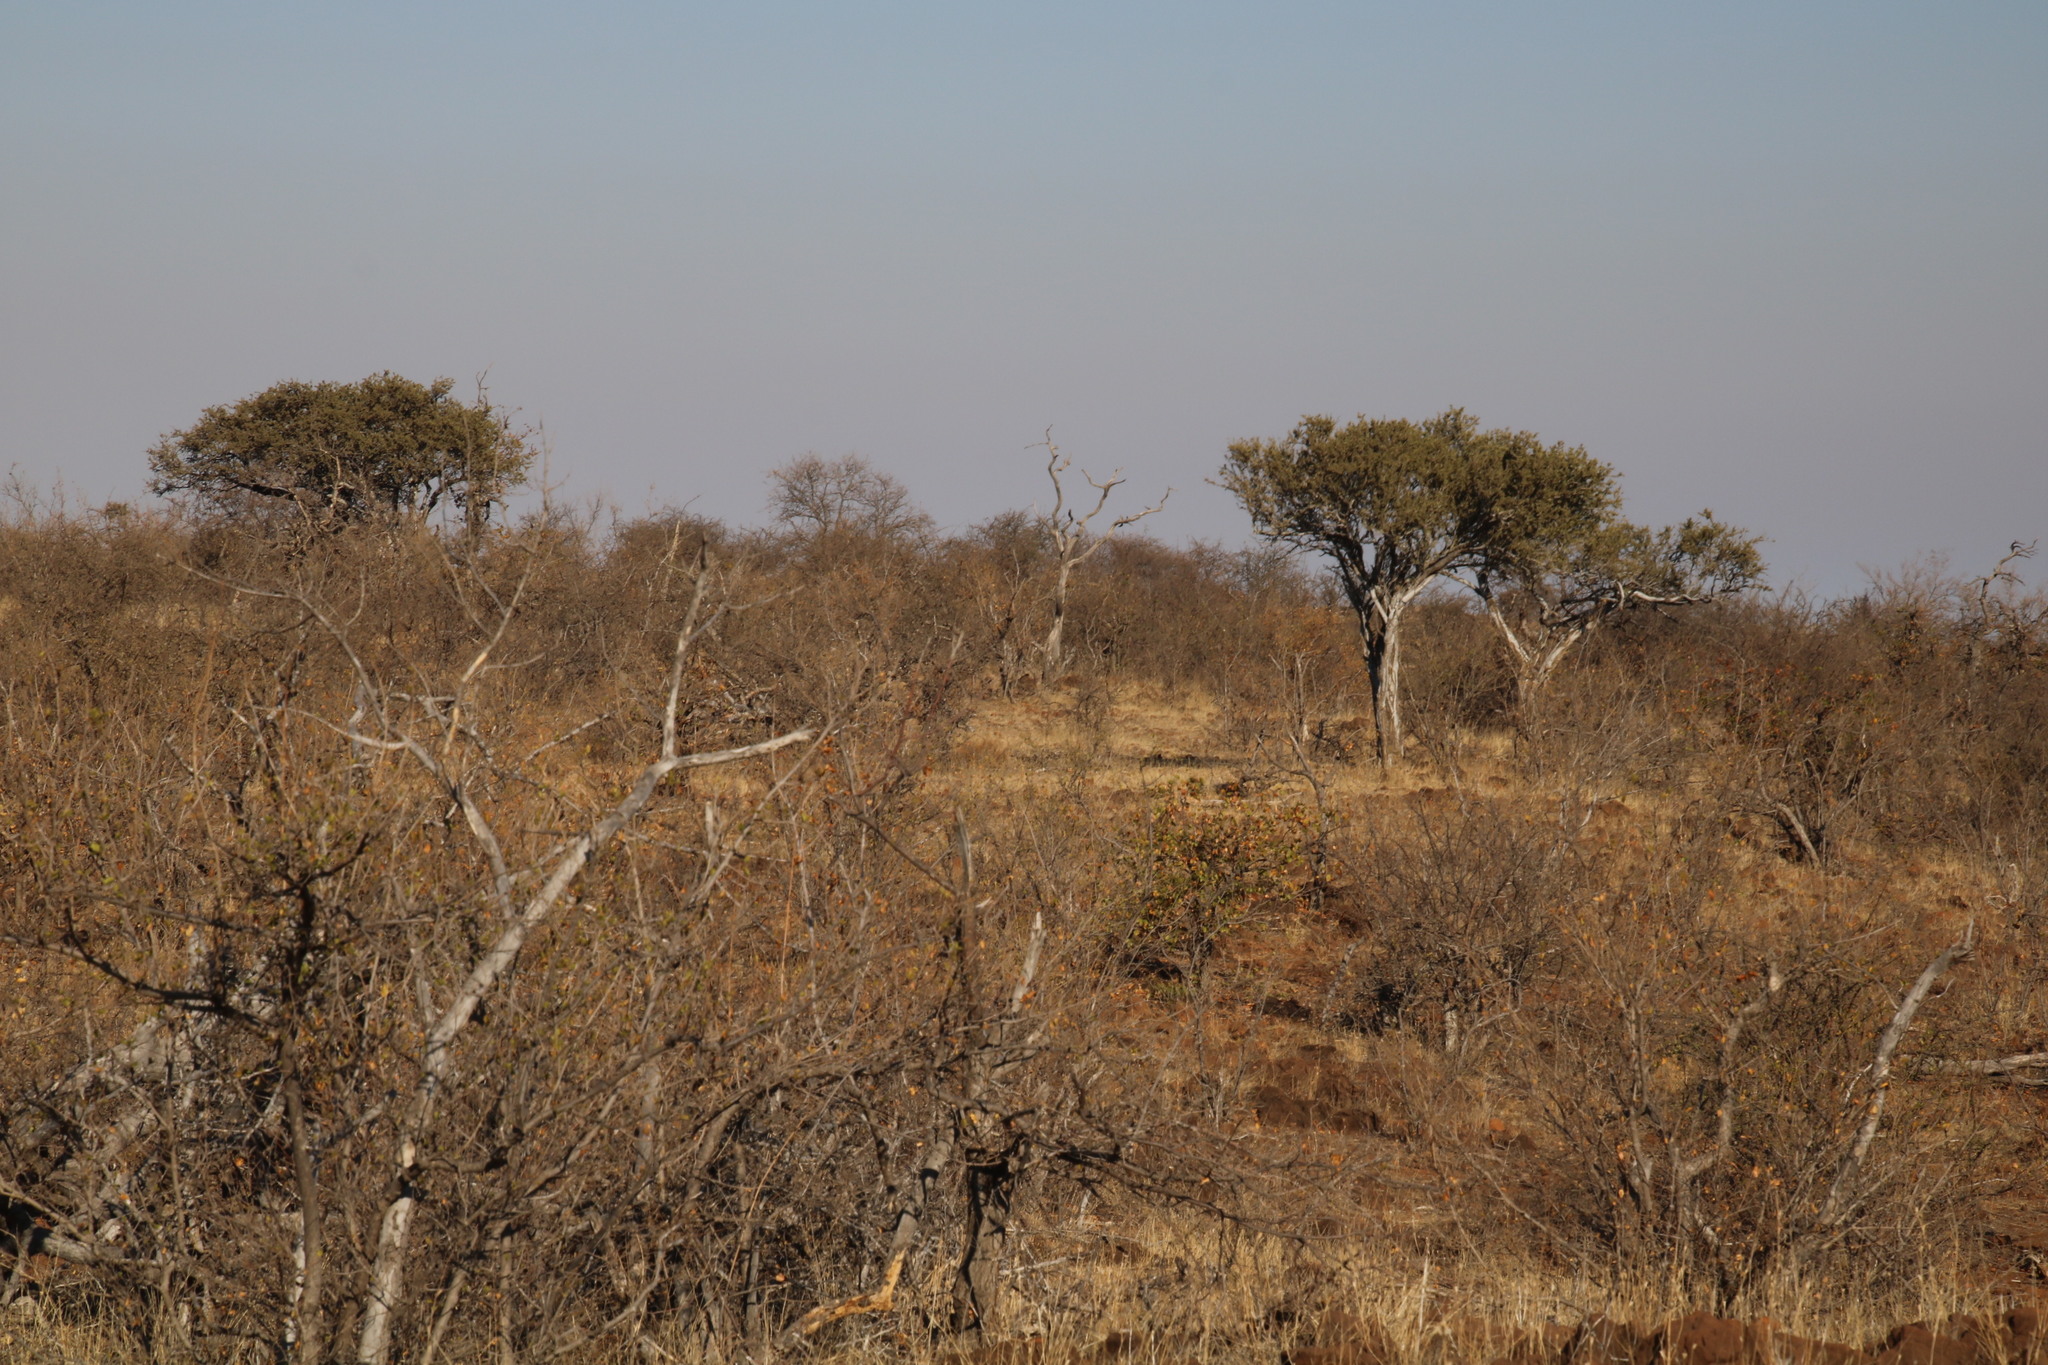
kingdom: Plantae
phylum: Tracheophyta
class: Magnoliopsida
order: Brassicales
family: Capparaceae
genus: Boscia
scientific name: Boscia albitrunca
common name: Caper bush
